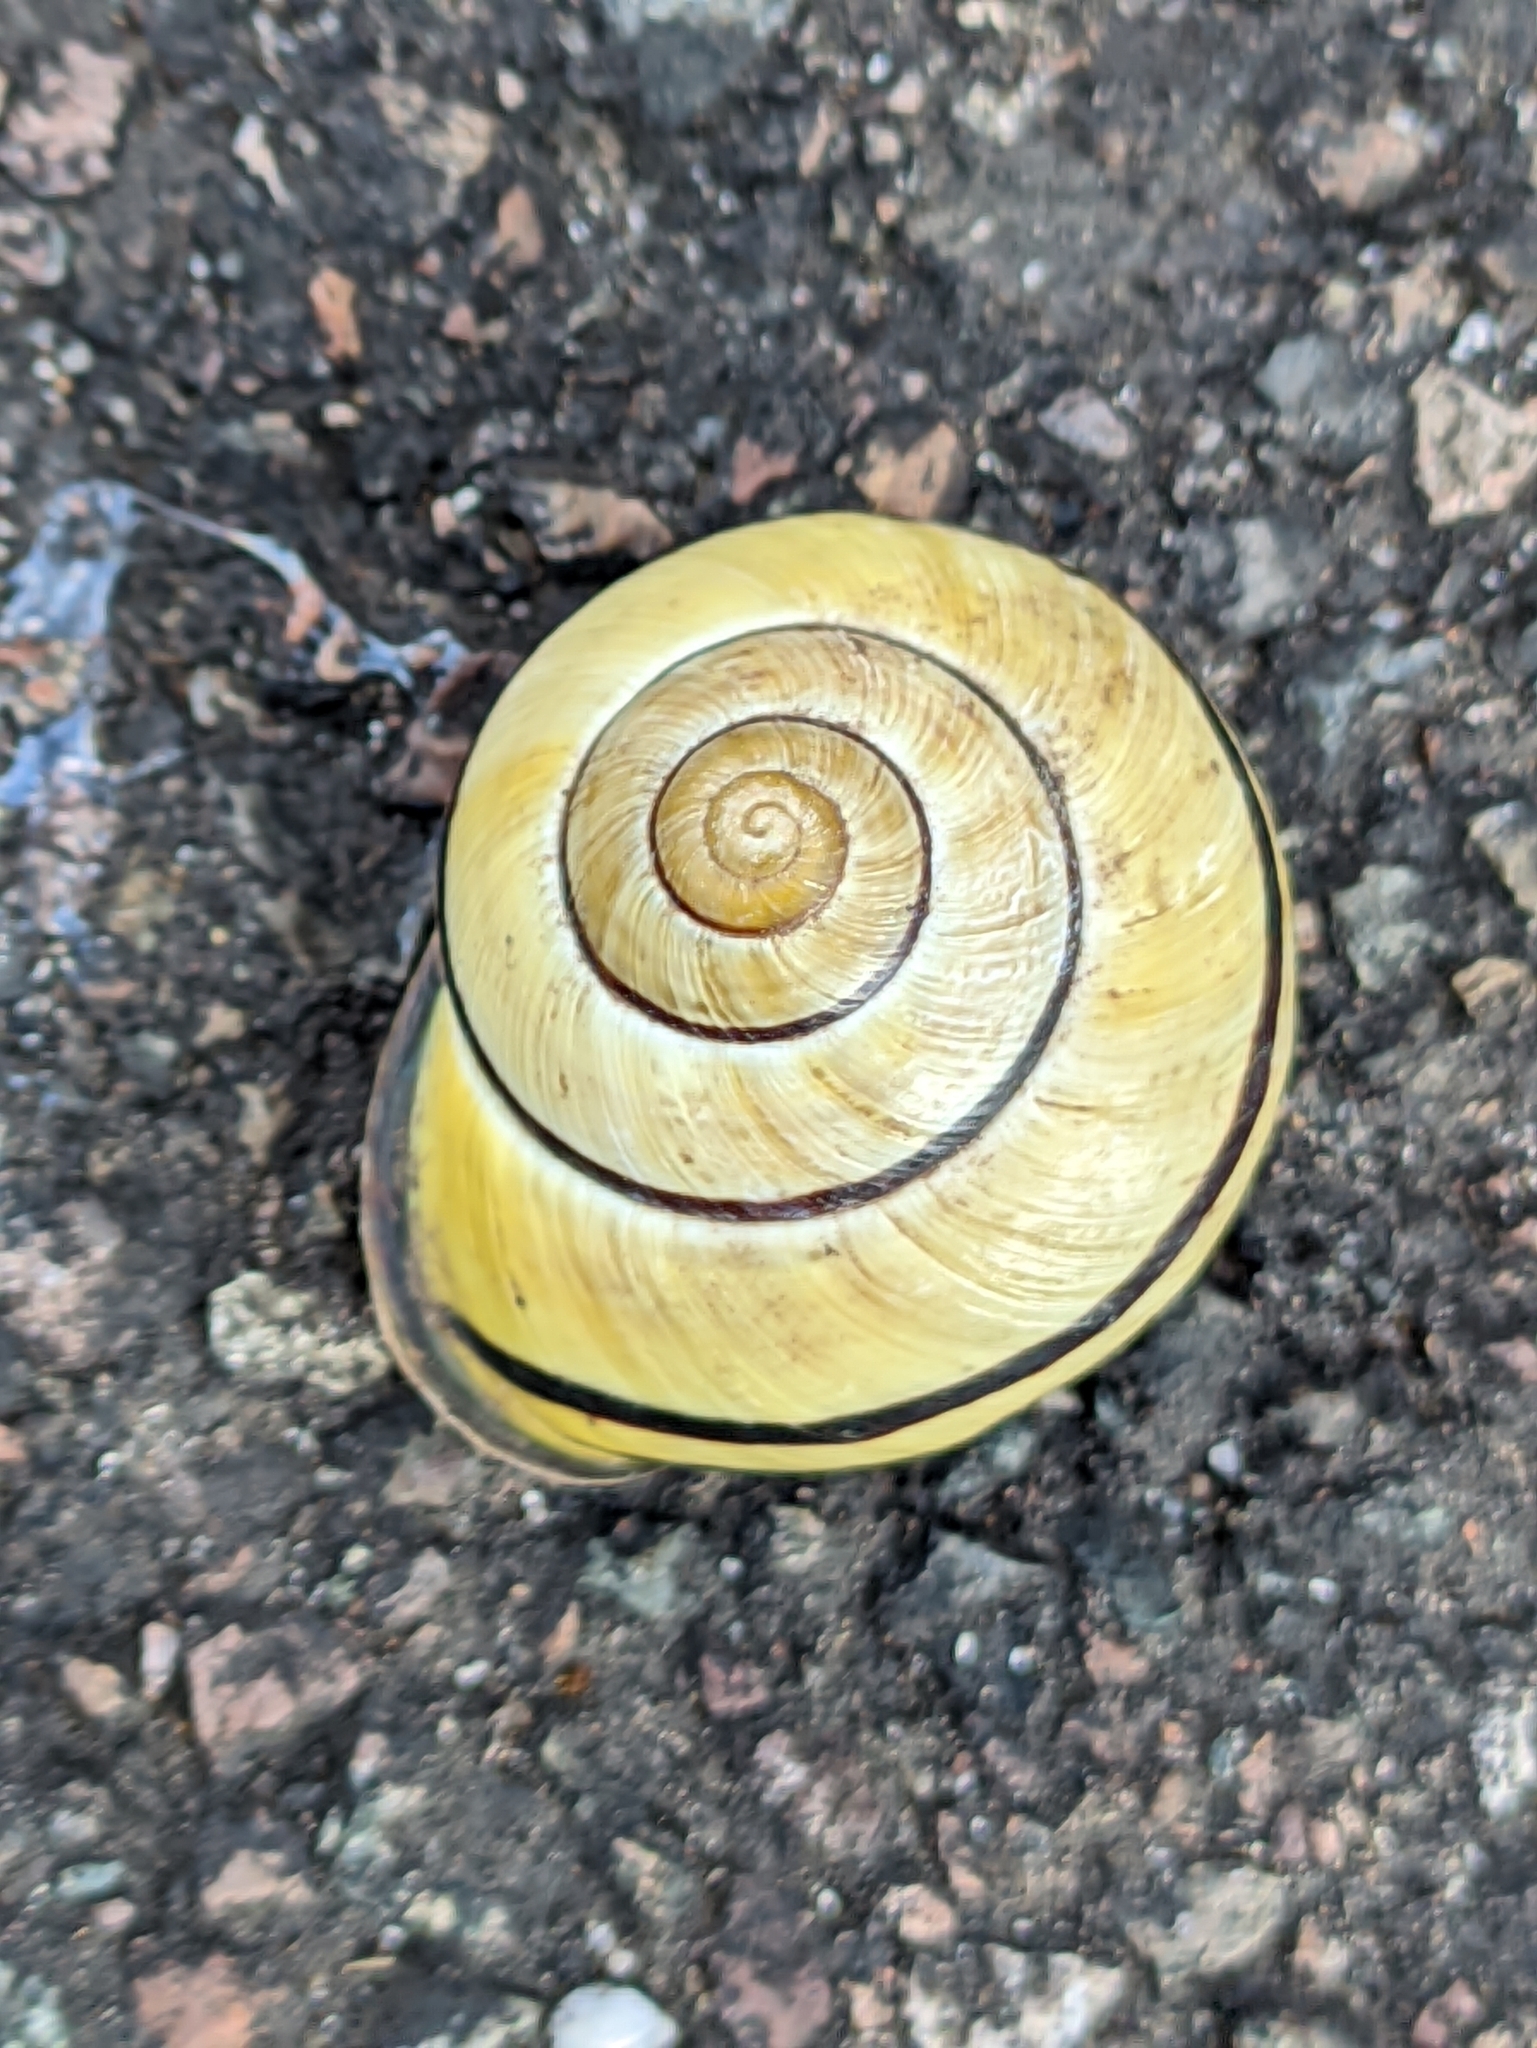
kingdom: Animalia
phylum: Mollusca
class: Gastropoda
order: Stylommatophora
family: Helicidae
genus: Cepaea
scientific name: Cepaea nemoralis
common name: Grovesnail
